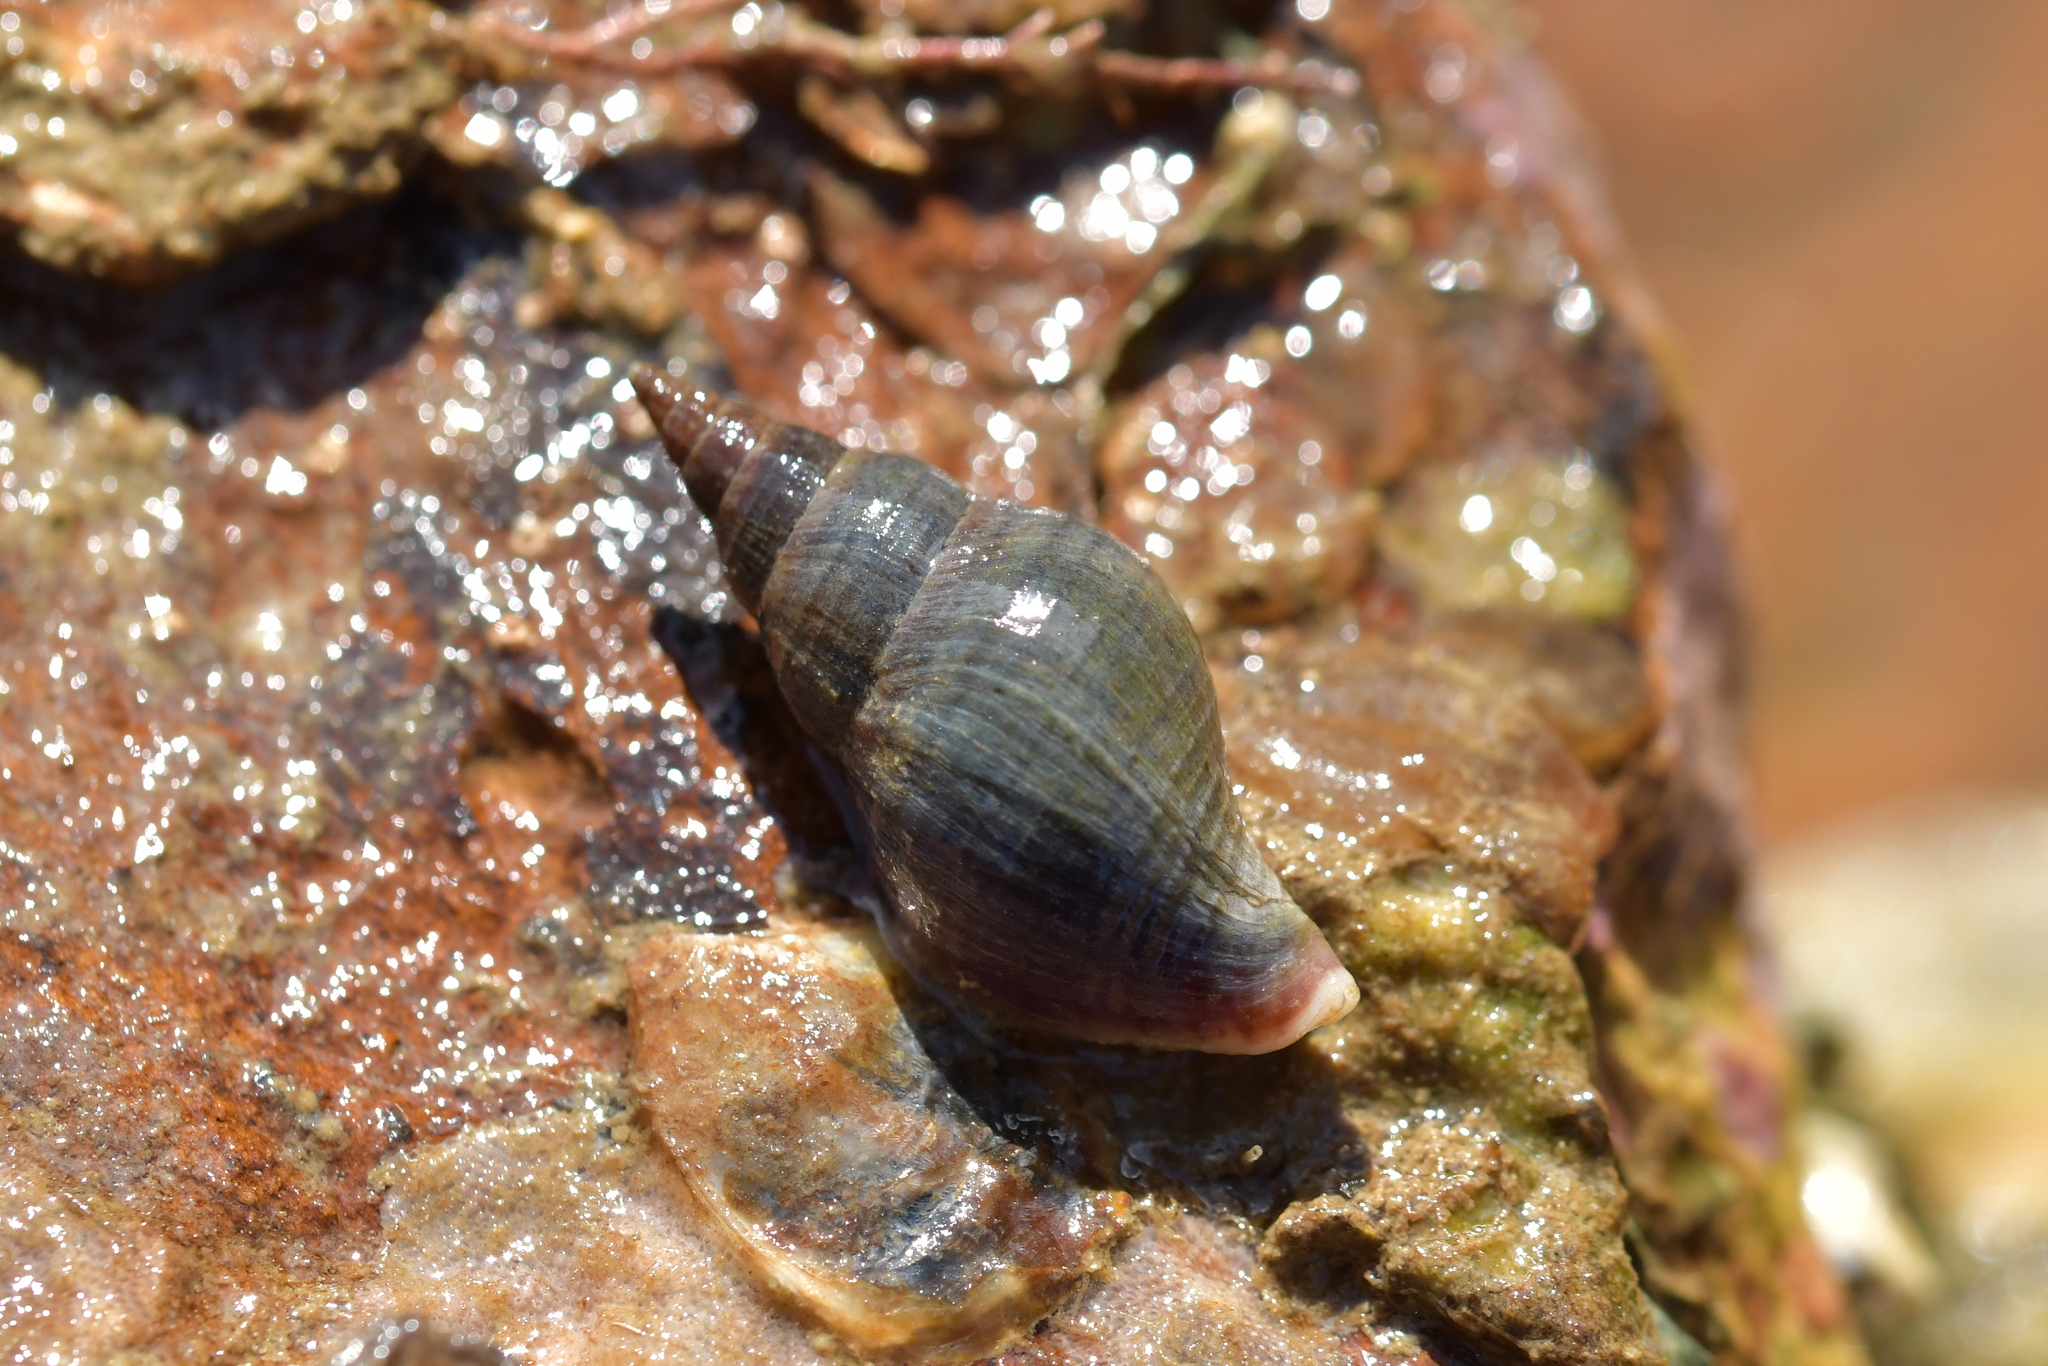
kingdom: Animalia
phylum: Mollusca
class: Gastropoda
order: Neogastropoda
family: Tudiclidae
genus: Buccinulum
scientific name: Buccinulum littorinoides
